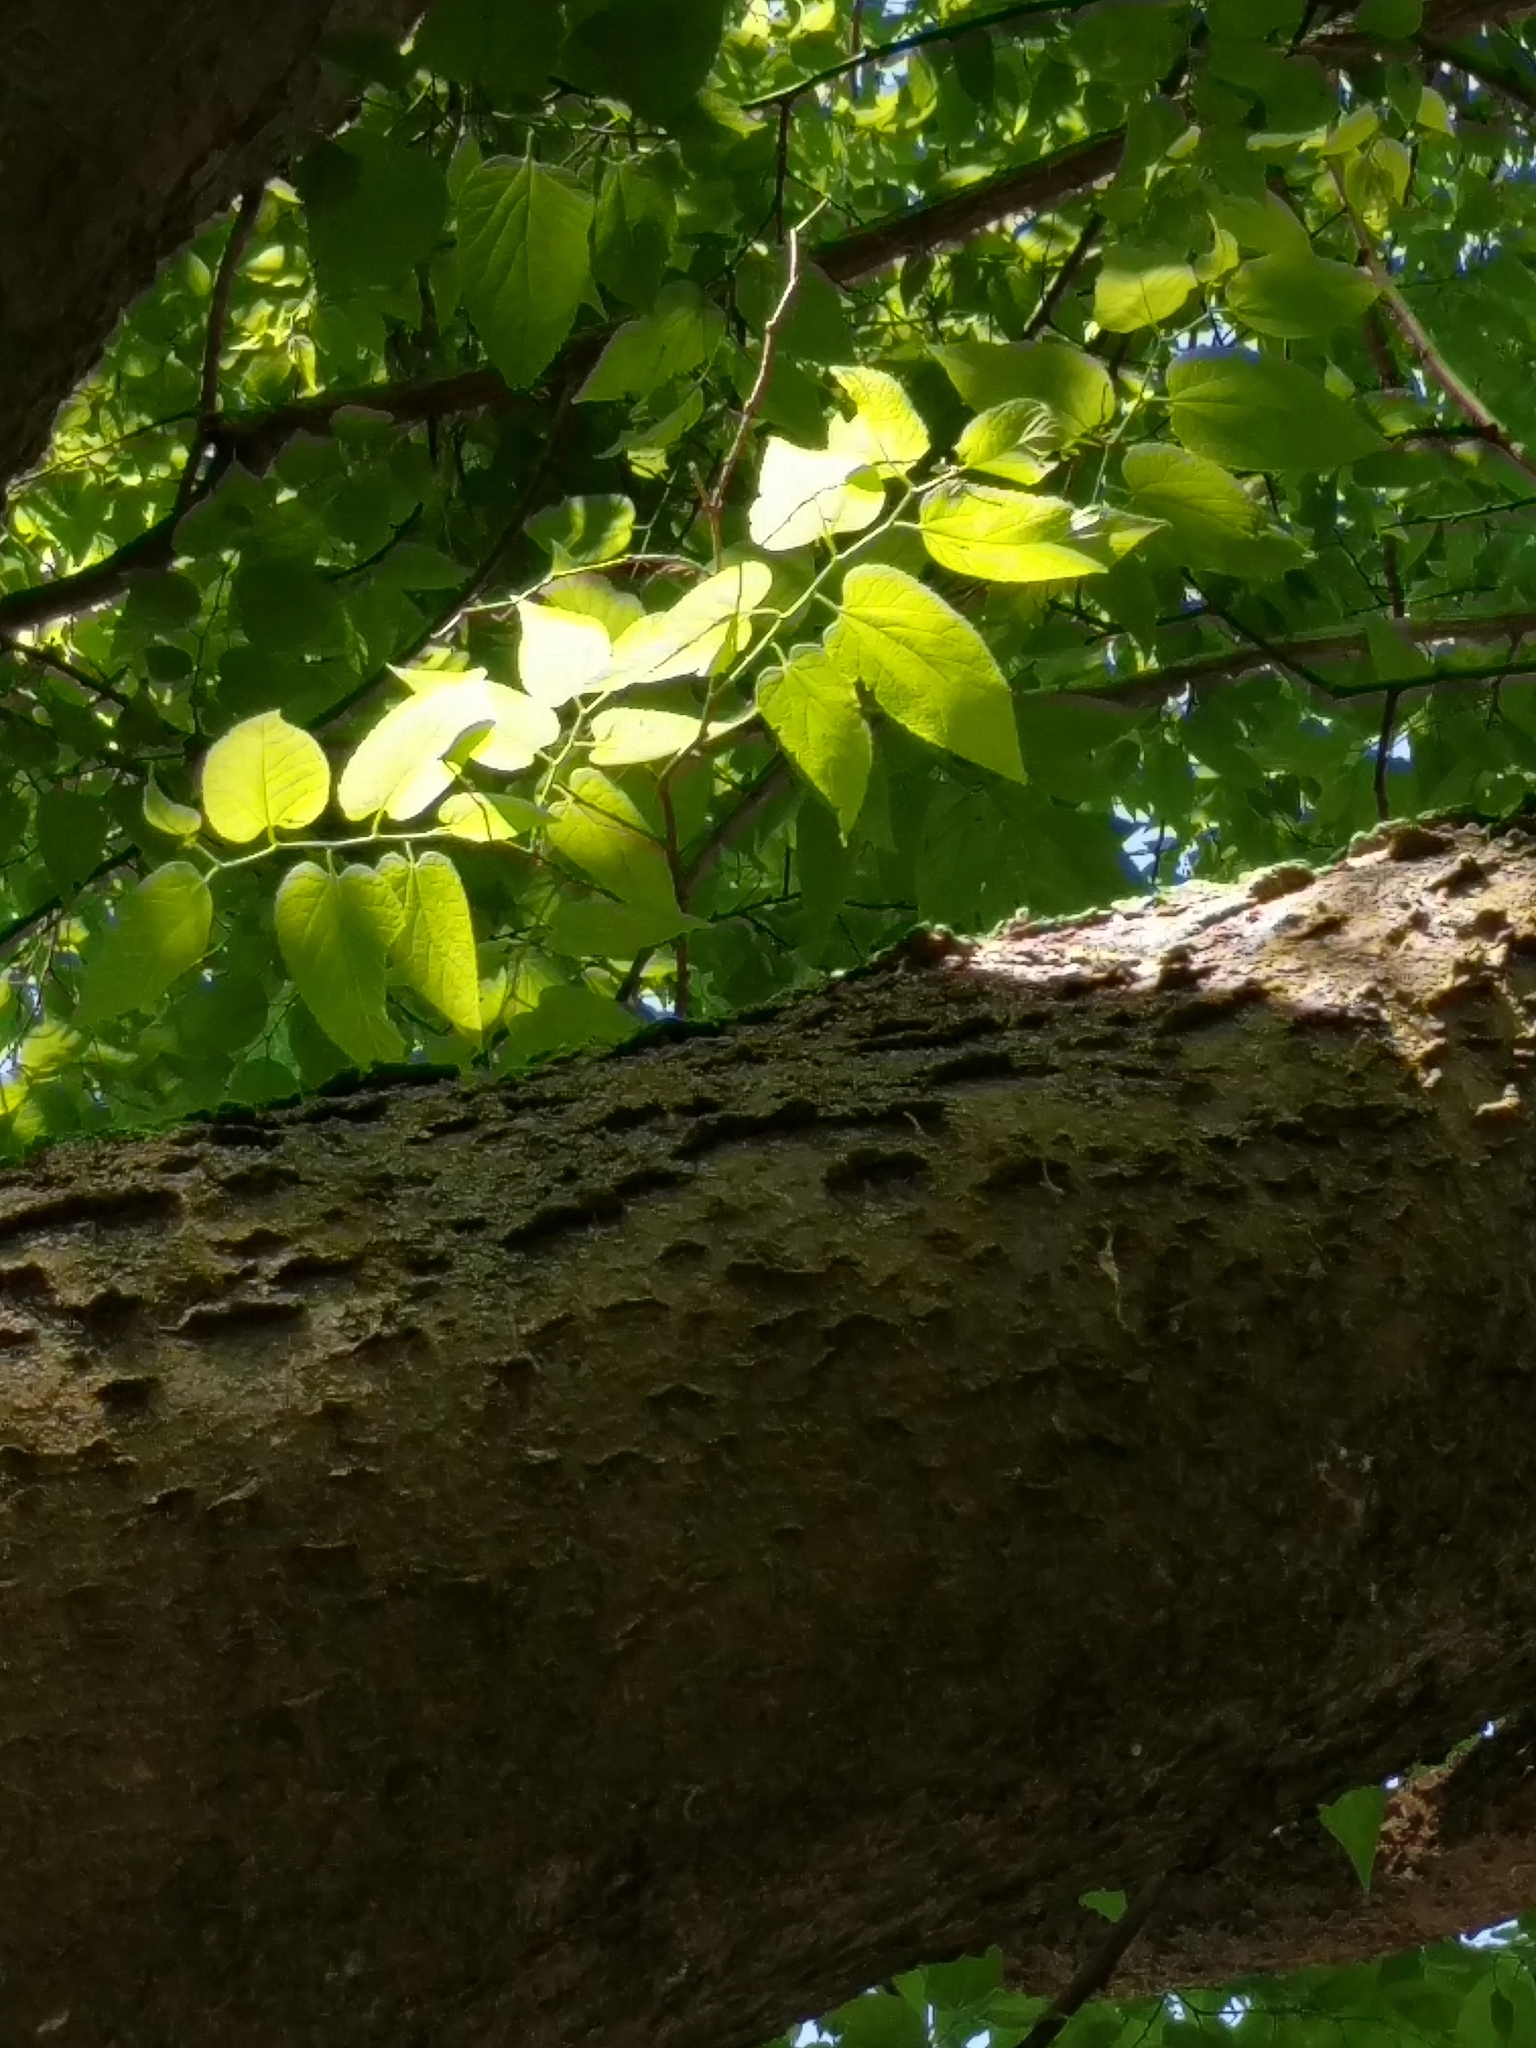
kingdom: Plantae
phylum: Tracheophyta
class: Magnoliopsida
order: Rosales
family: Cannabaceae
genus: Celtis
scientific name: Celtis occidentalis
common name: Common hackberry
